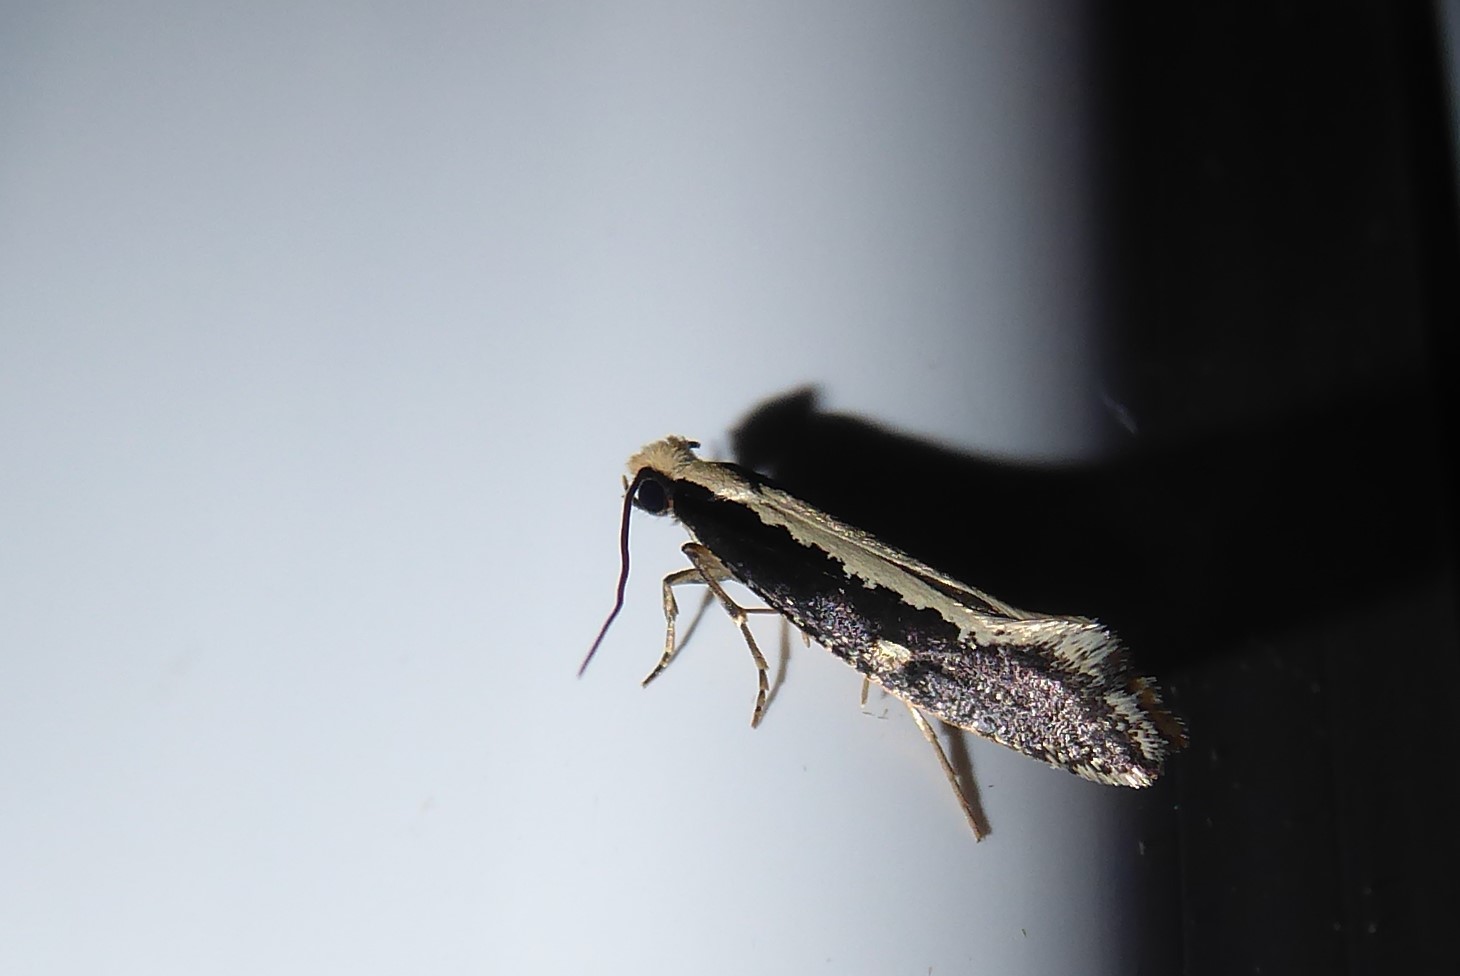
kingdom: Animalia
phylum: Arthropoda
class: Insecta
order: Lepidoptera
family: Tineidae
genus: Monopis
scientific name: Monopis ethelella
